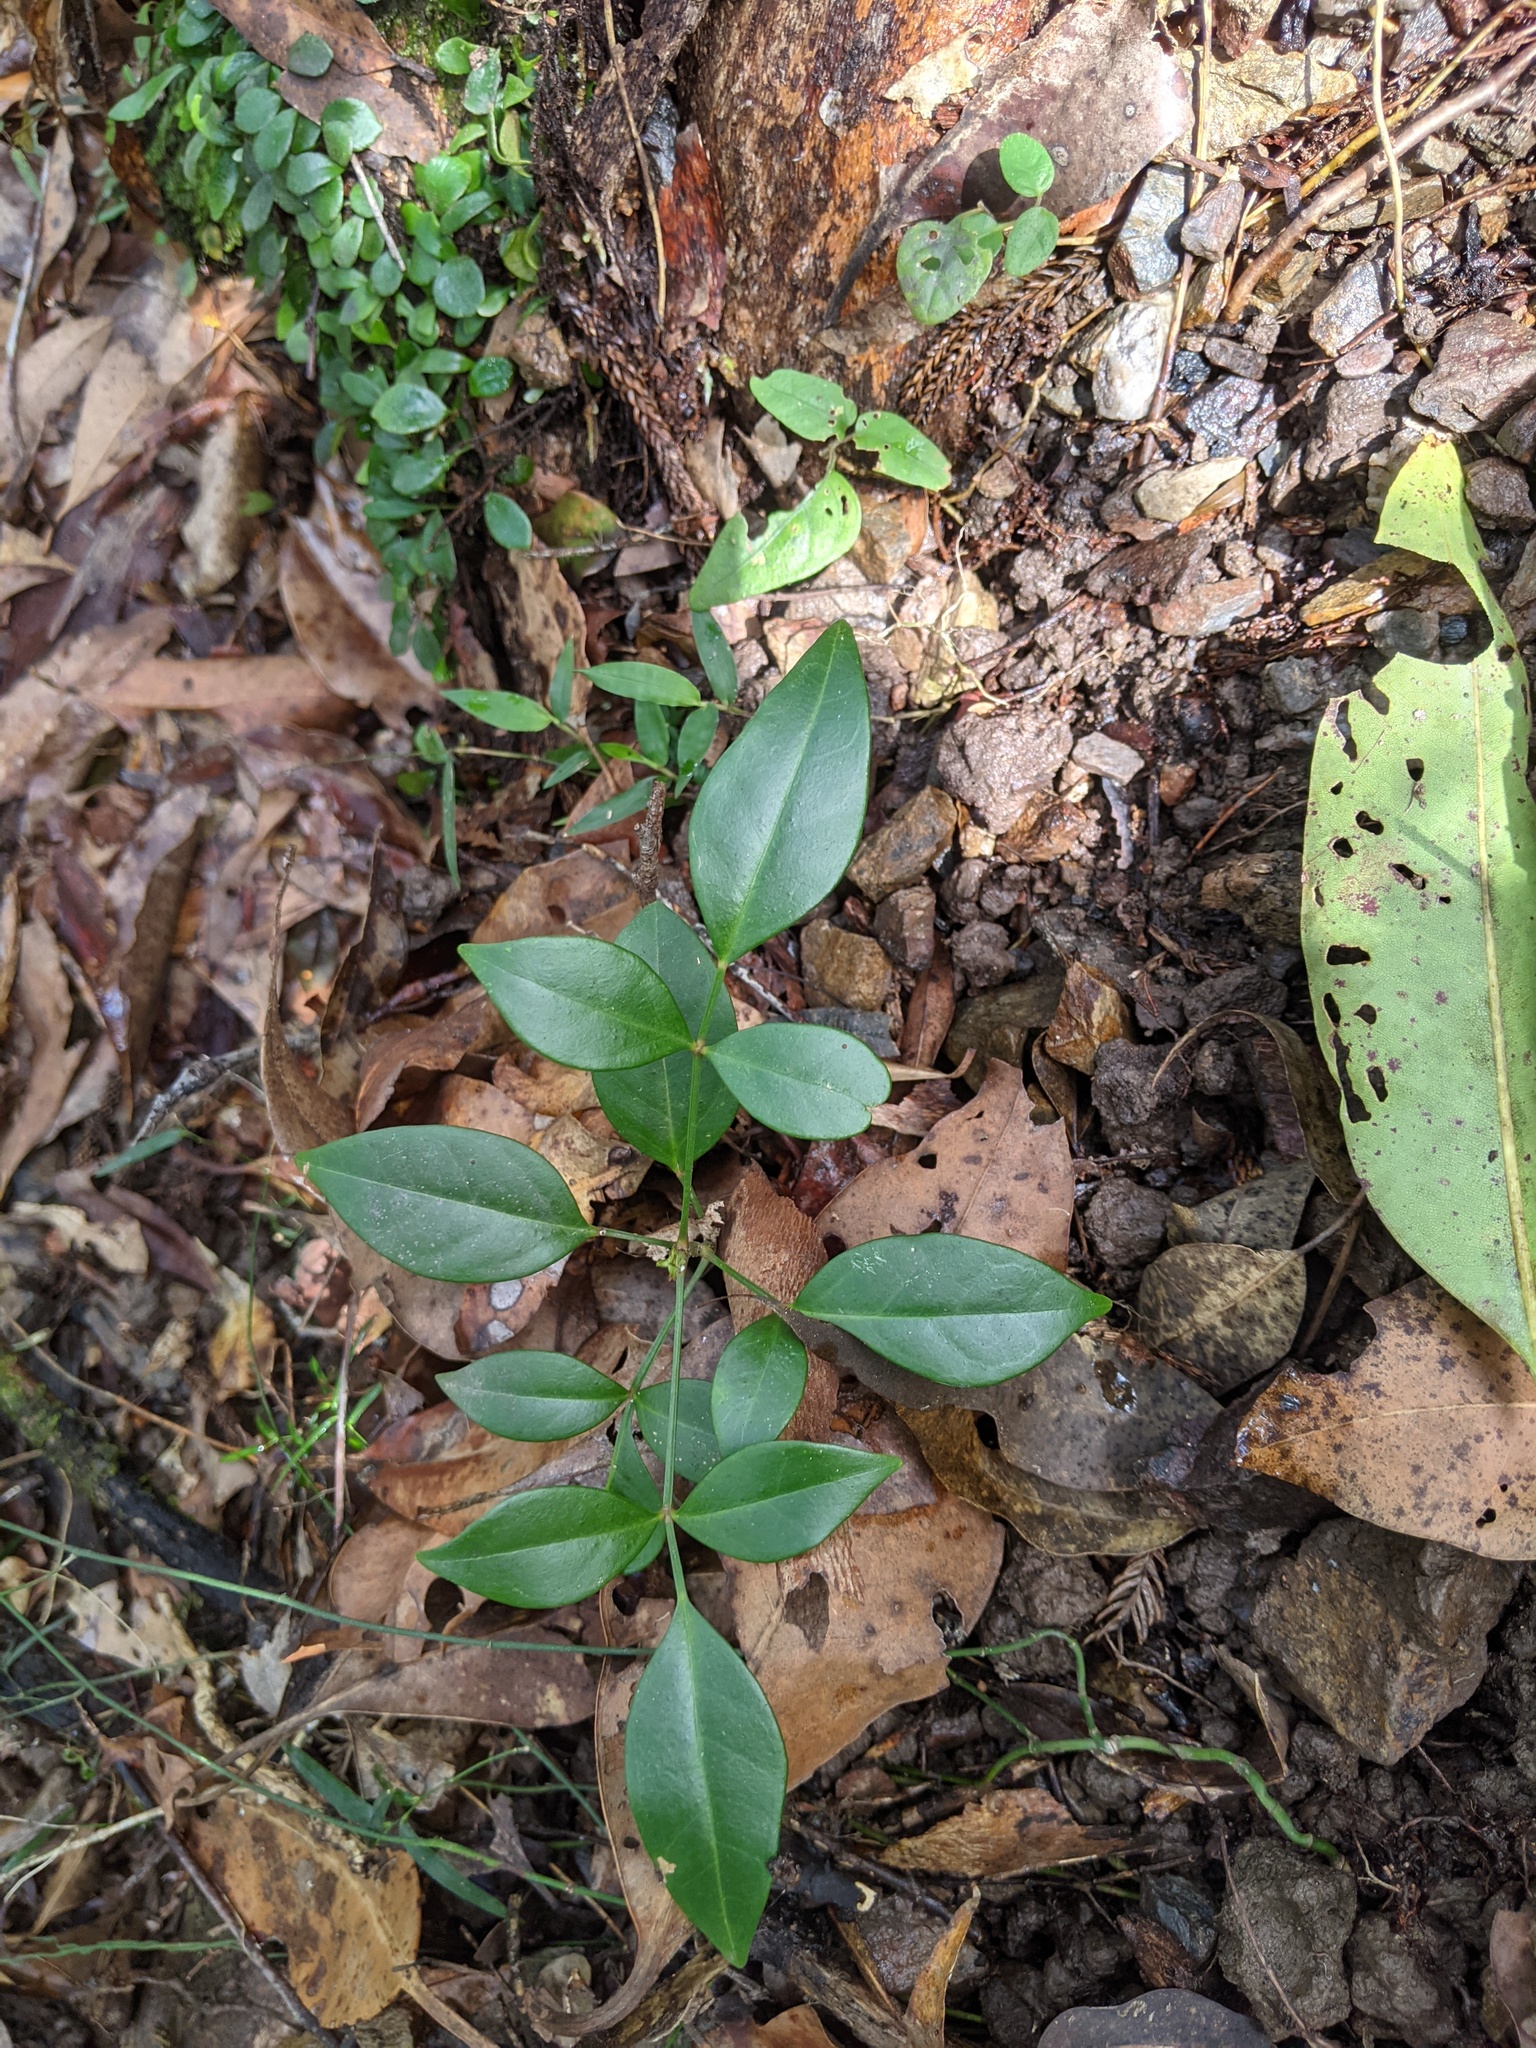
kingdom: Plantae
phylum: Tracheophyta
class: Magnoliopsida
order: Lamiales
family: Bignoniaceae
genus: Pandorea
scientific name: Pandorea jasminoides
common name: Bowerplant
